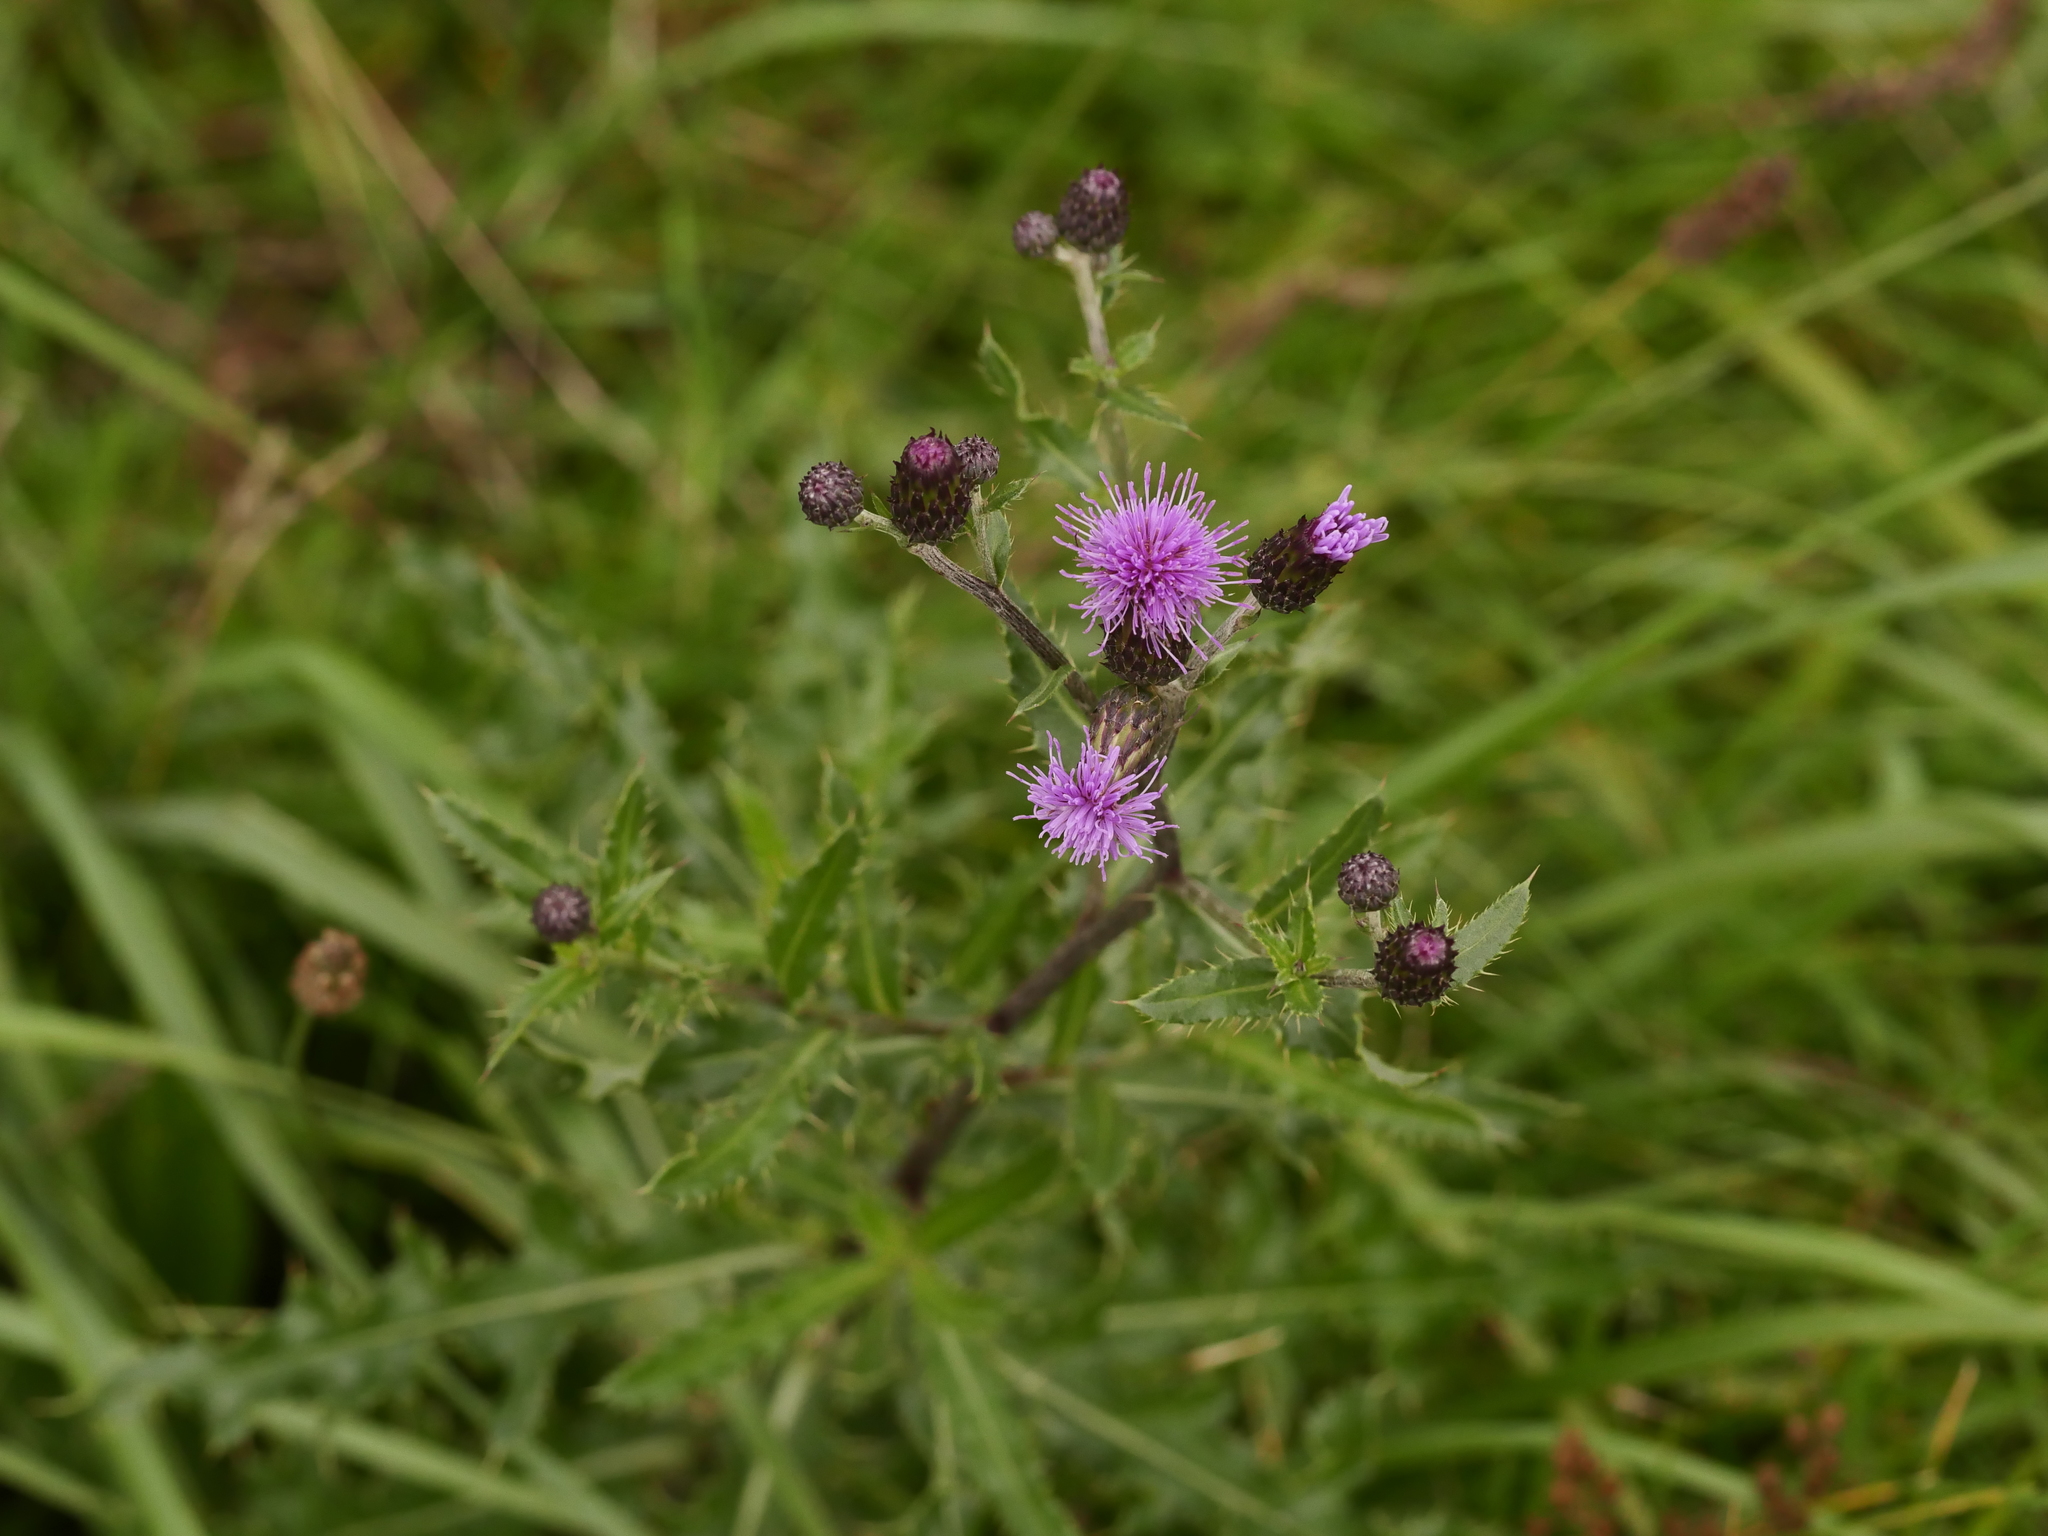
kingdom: Plantae
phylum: Tracheophyta
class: Magnoliopsida
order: Asterales
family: Asteraceae
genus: Cirsium
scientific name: Cirsium arvense
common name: Creeping thistle
